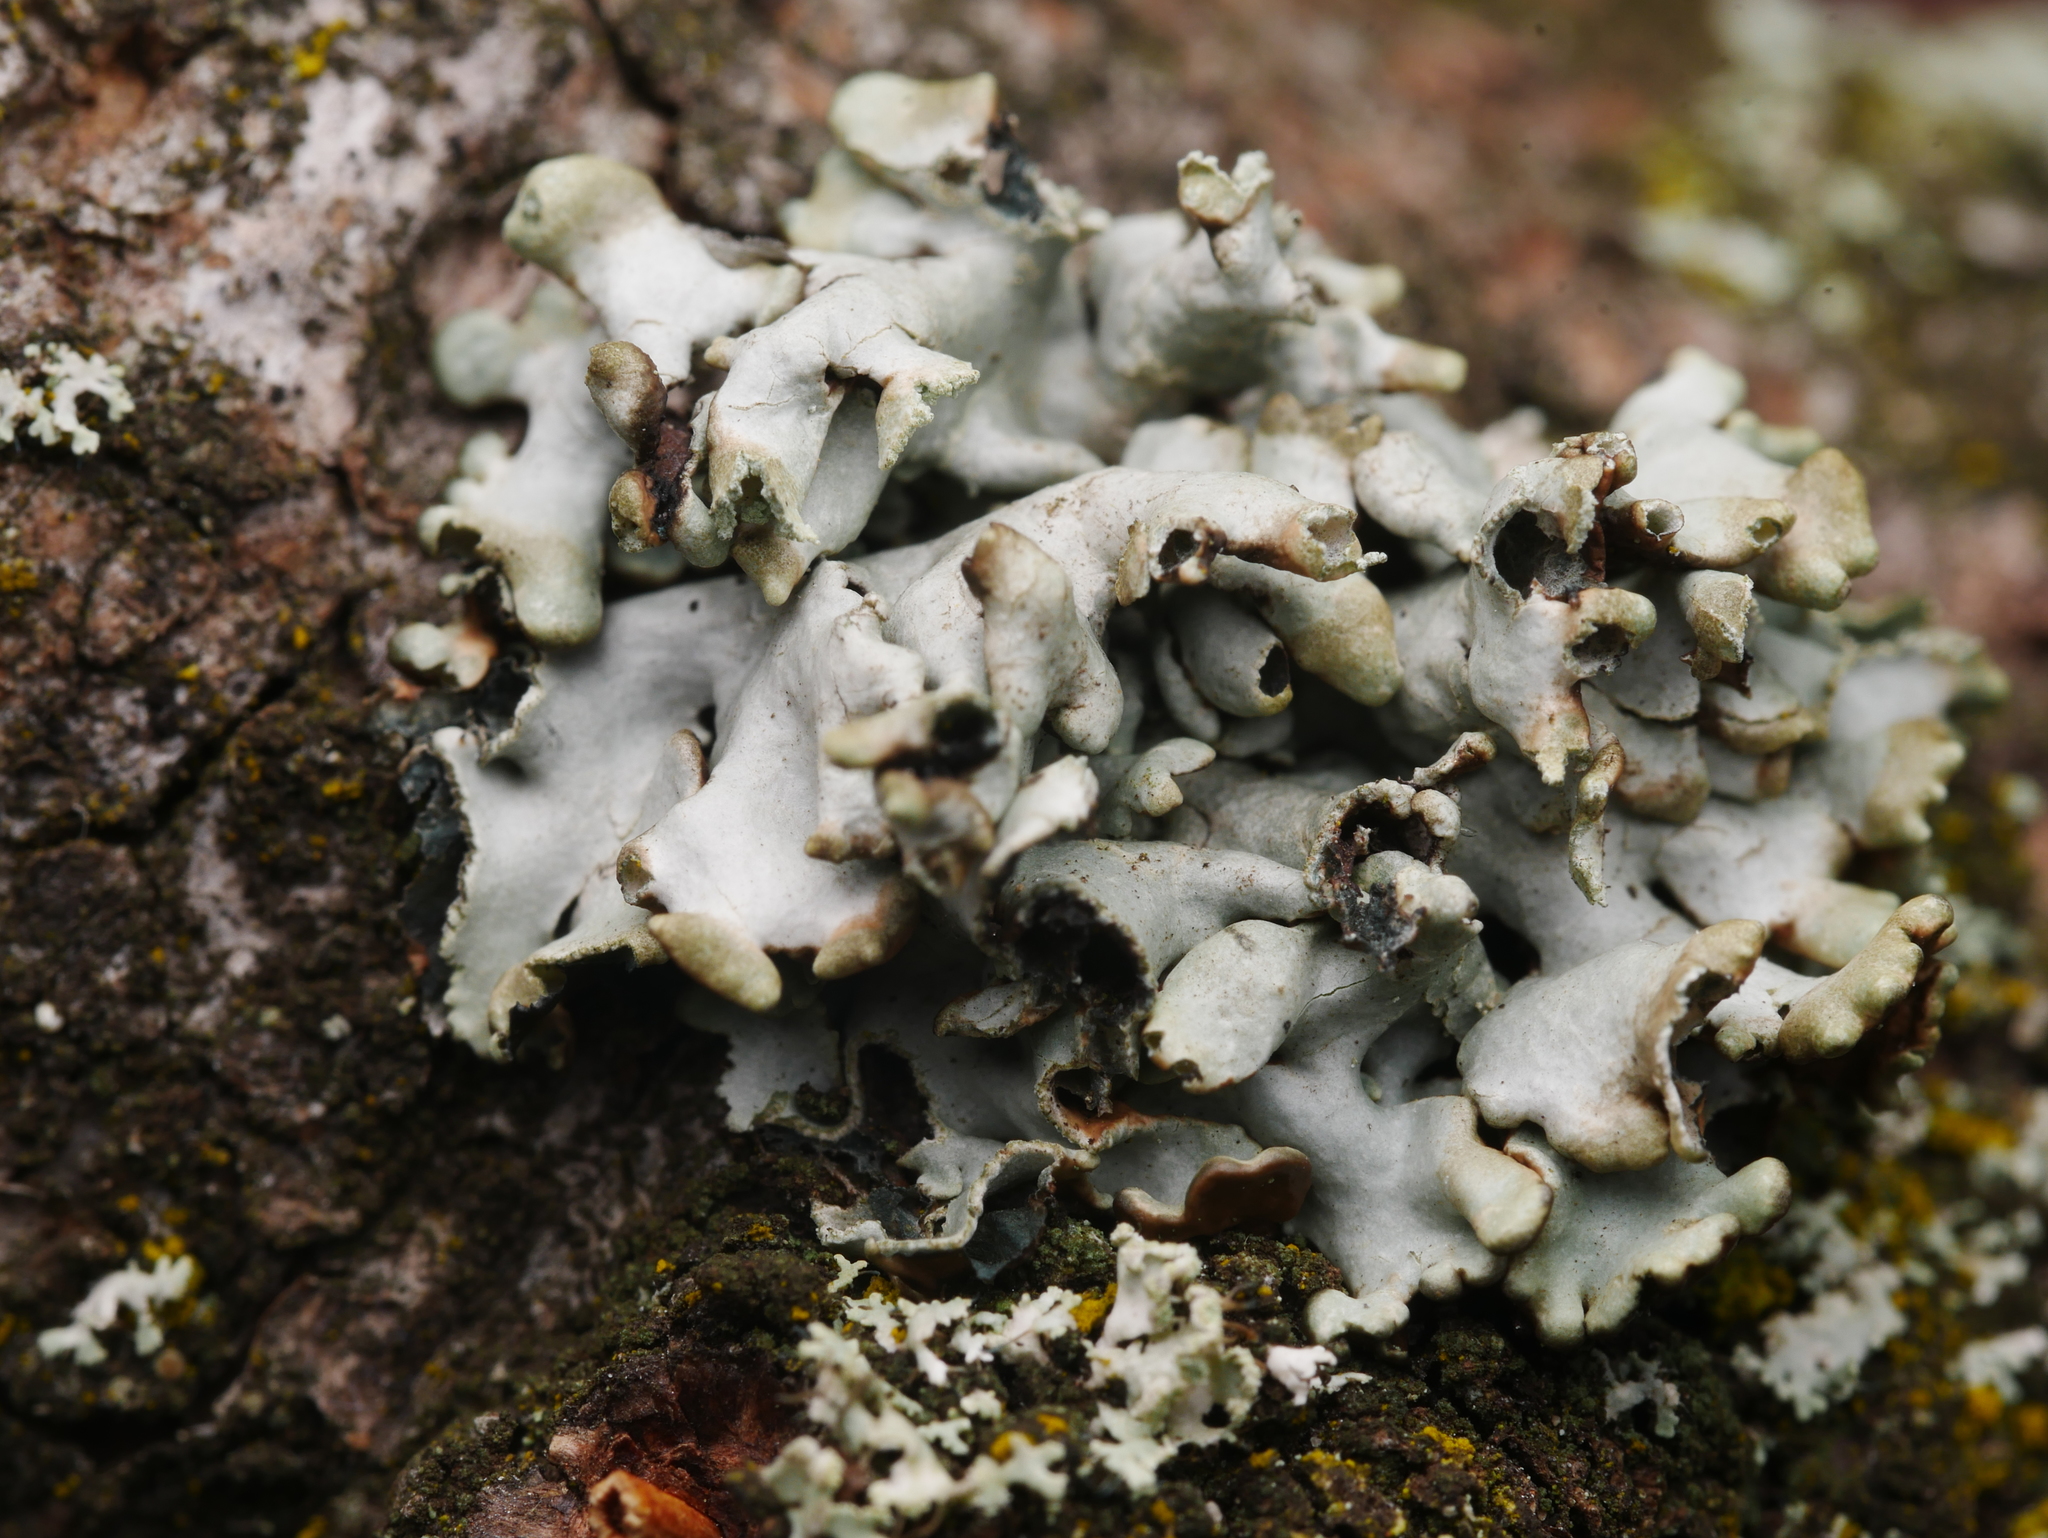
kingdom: Fungi
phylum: Ascomycota
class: Lecanoromycetes
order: Lecanorales
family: Parmeliaceae
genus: Hypogymnia
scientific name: Hypogymnia physodes
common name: Dark crottle
